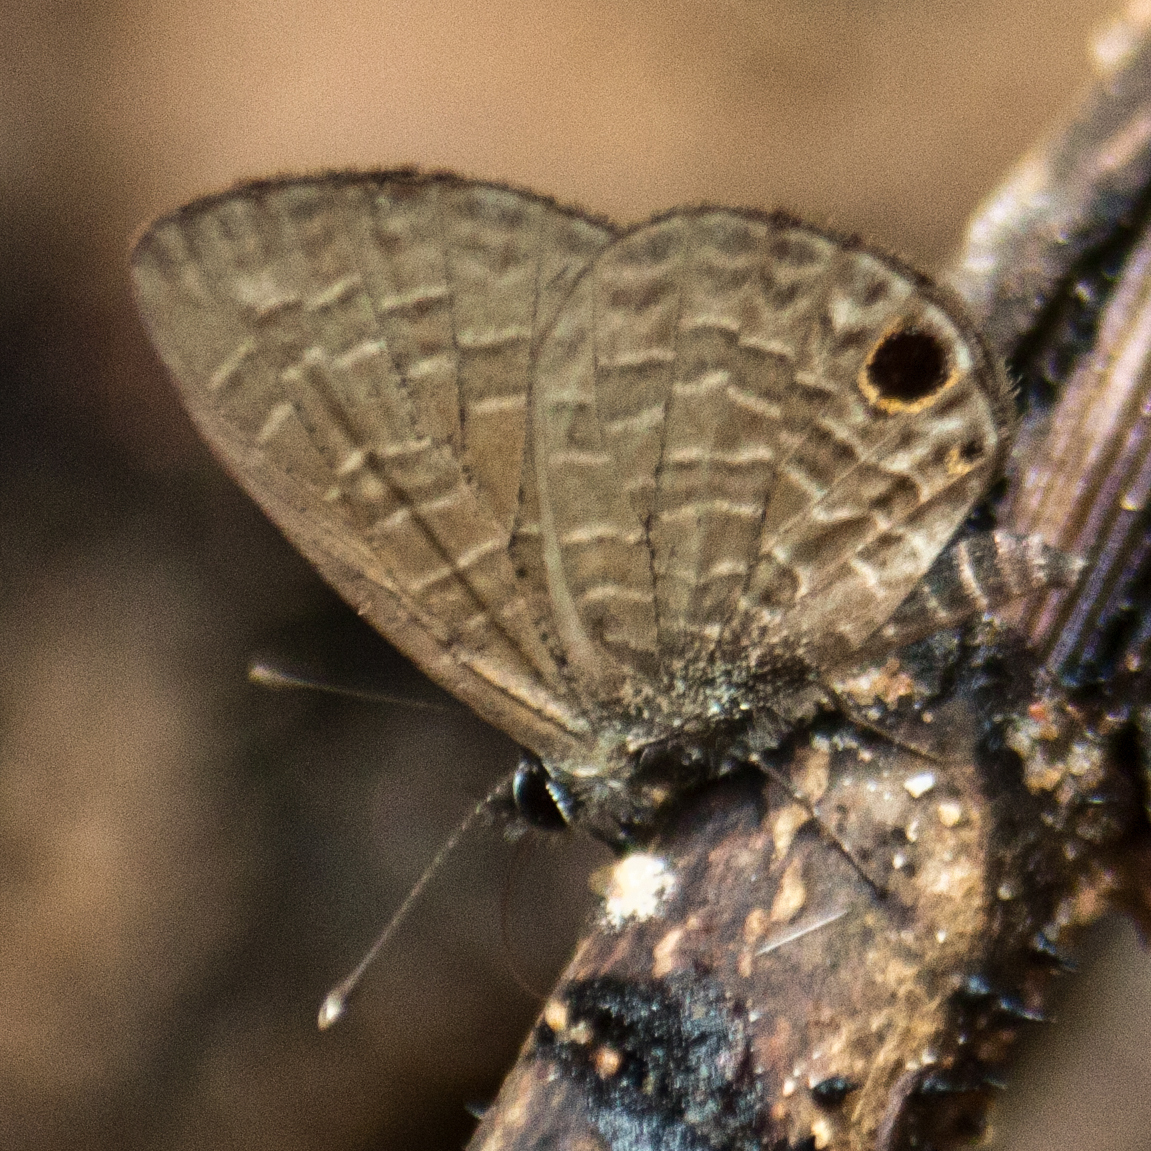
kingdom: Animalia
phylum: Arthropoda
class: Insecta
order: Lepidoptera
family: Lycaenidae
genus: Prosotas
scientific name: Prosotas dubiosa
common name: Tailless lineblue
